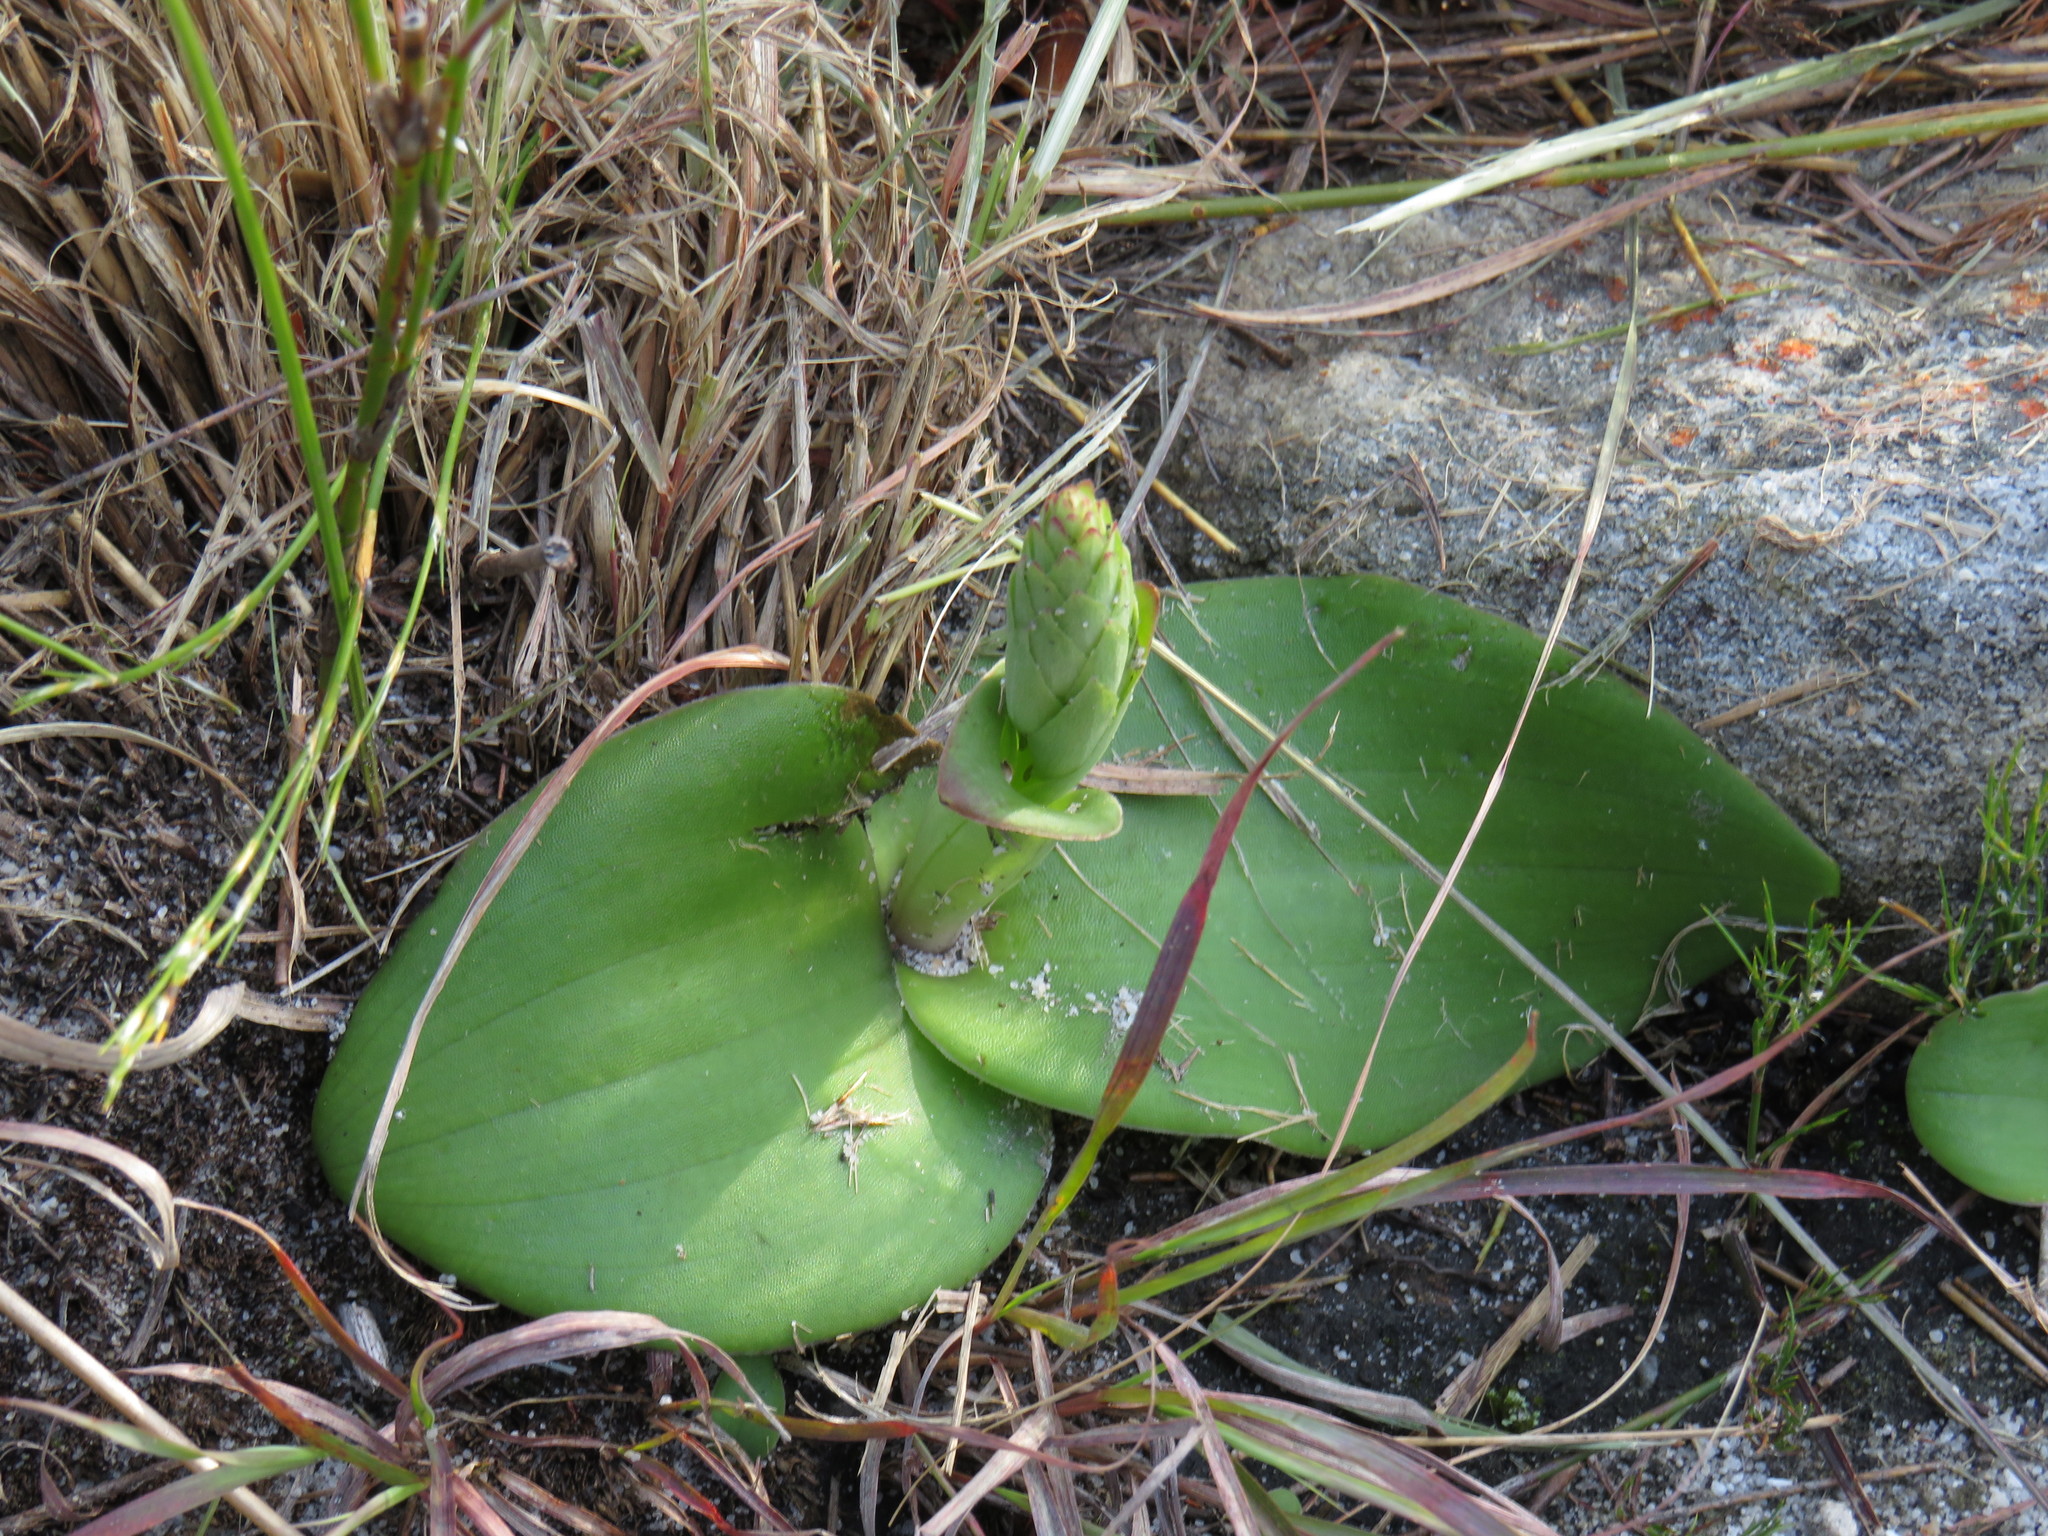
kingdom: Plantae
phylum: Tracheophyta
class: Liliopsida
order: Asparagales
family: Orchidaceae
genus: Satyrium
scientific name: Satyrium humile
